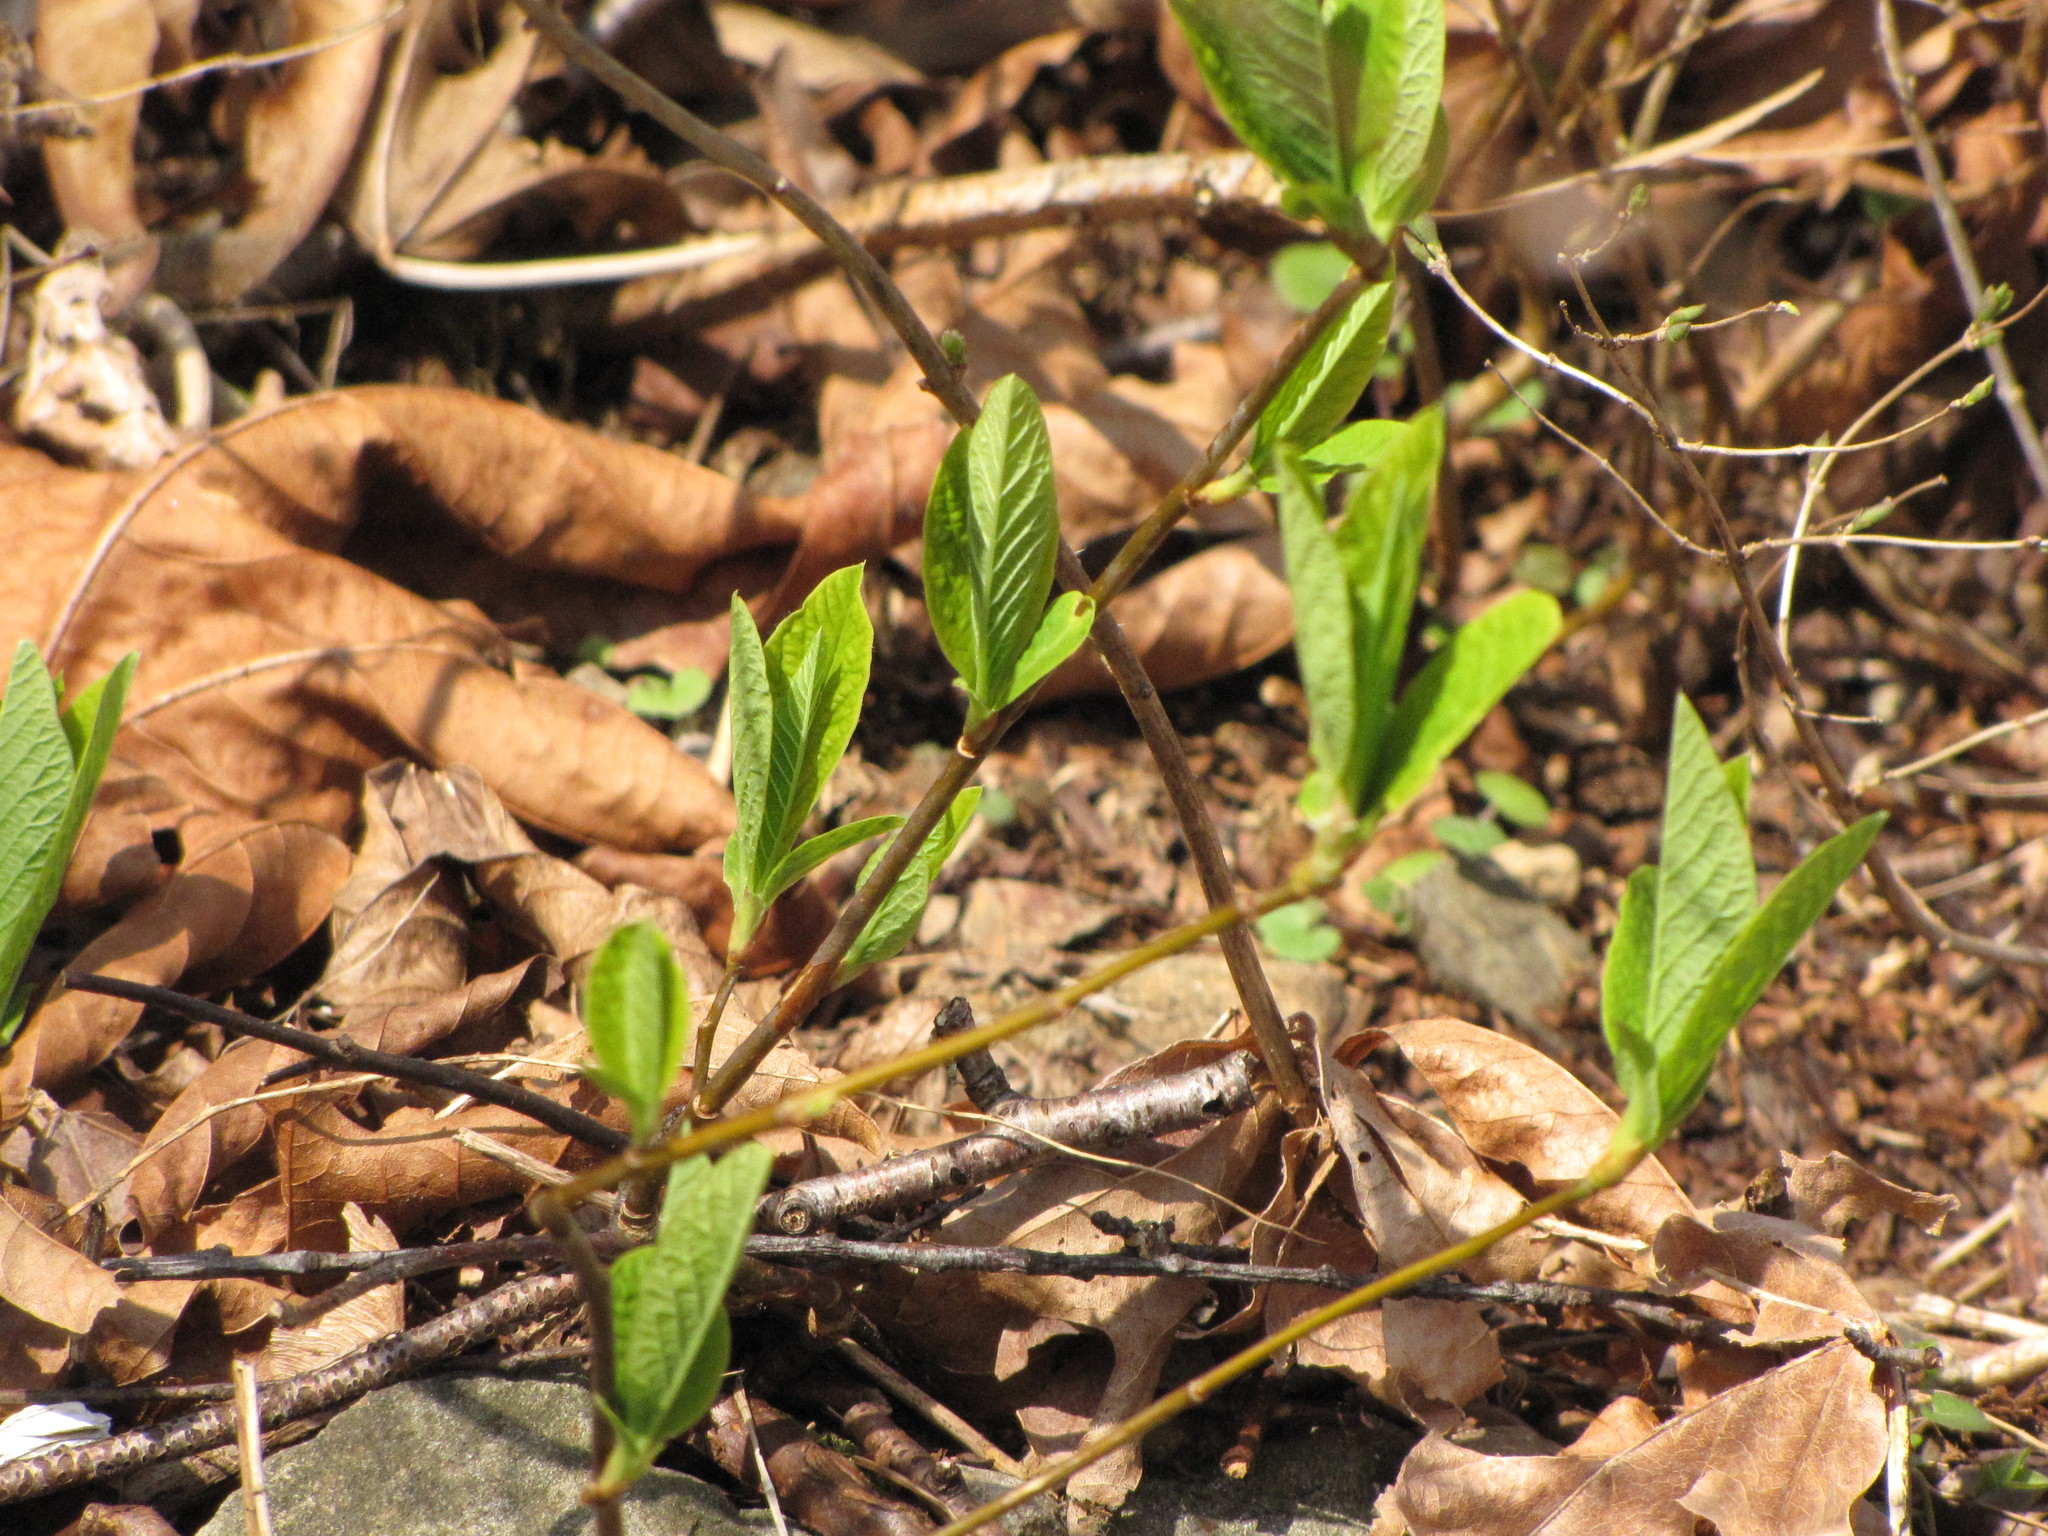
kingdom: Plantae
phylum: Tracheophyta
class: Magnoliopsida
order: Rosales
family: Rosaceae
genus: Oemleria
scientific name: Oemleria cerasiformis
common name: Osoberry
